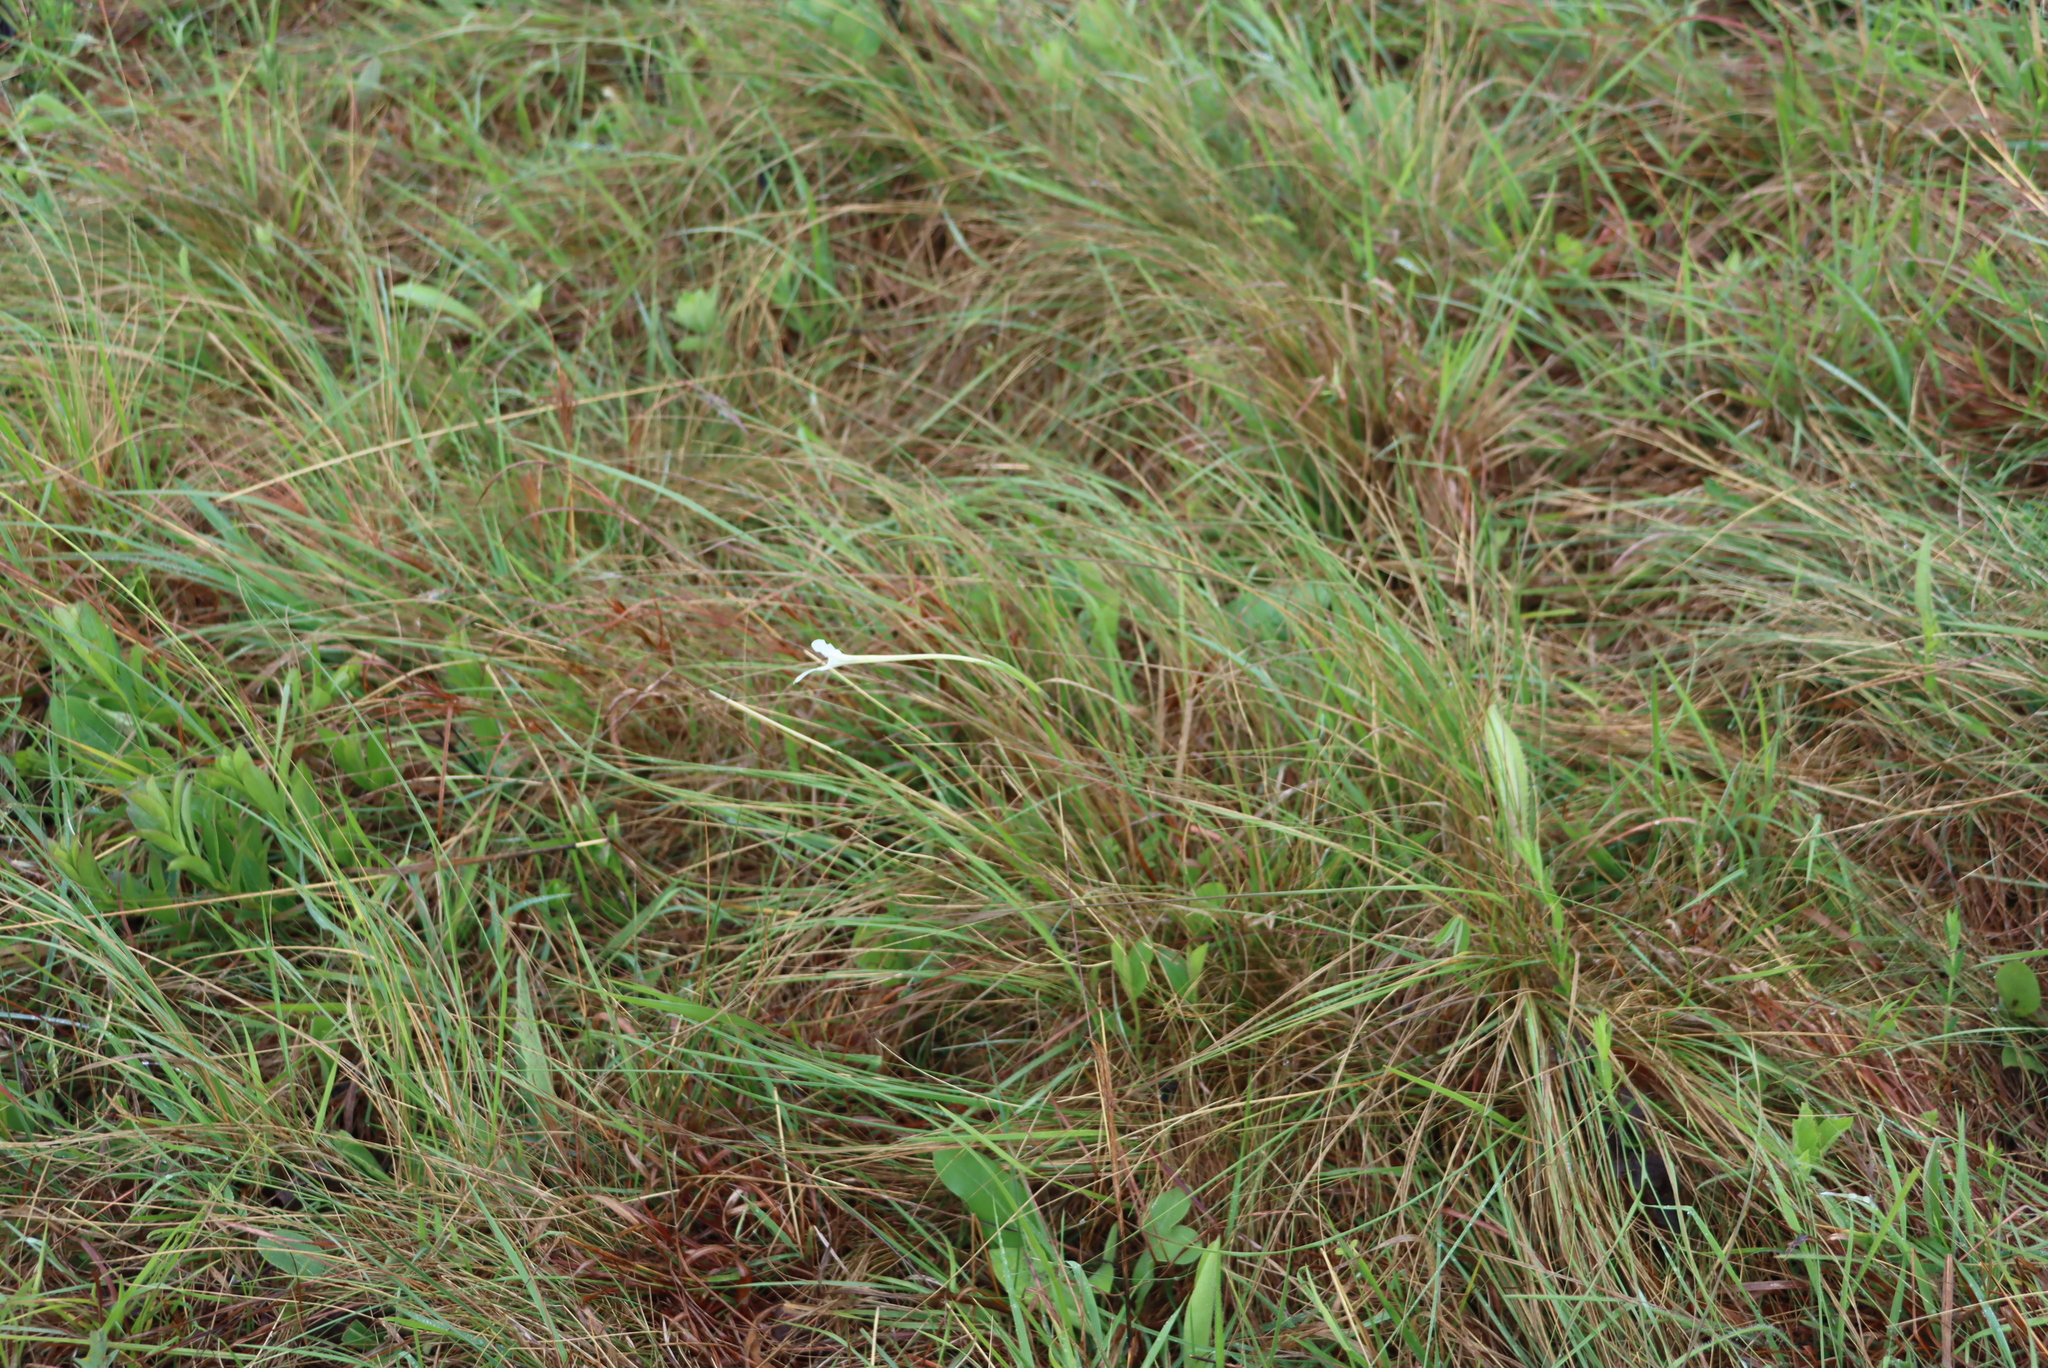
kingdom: Plantae
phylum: Tracheophyta
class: Liliopsida
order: Asparagales
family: Iridaceae
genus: Gladiolus
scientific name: Gladiolus longicollis
